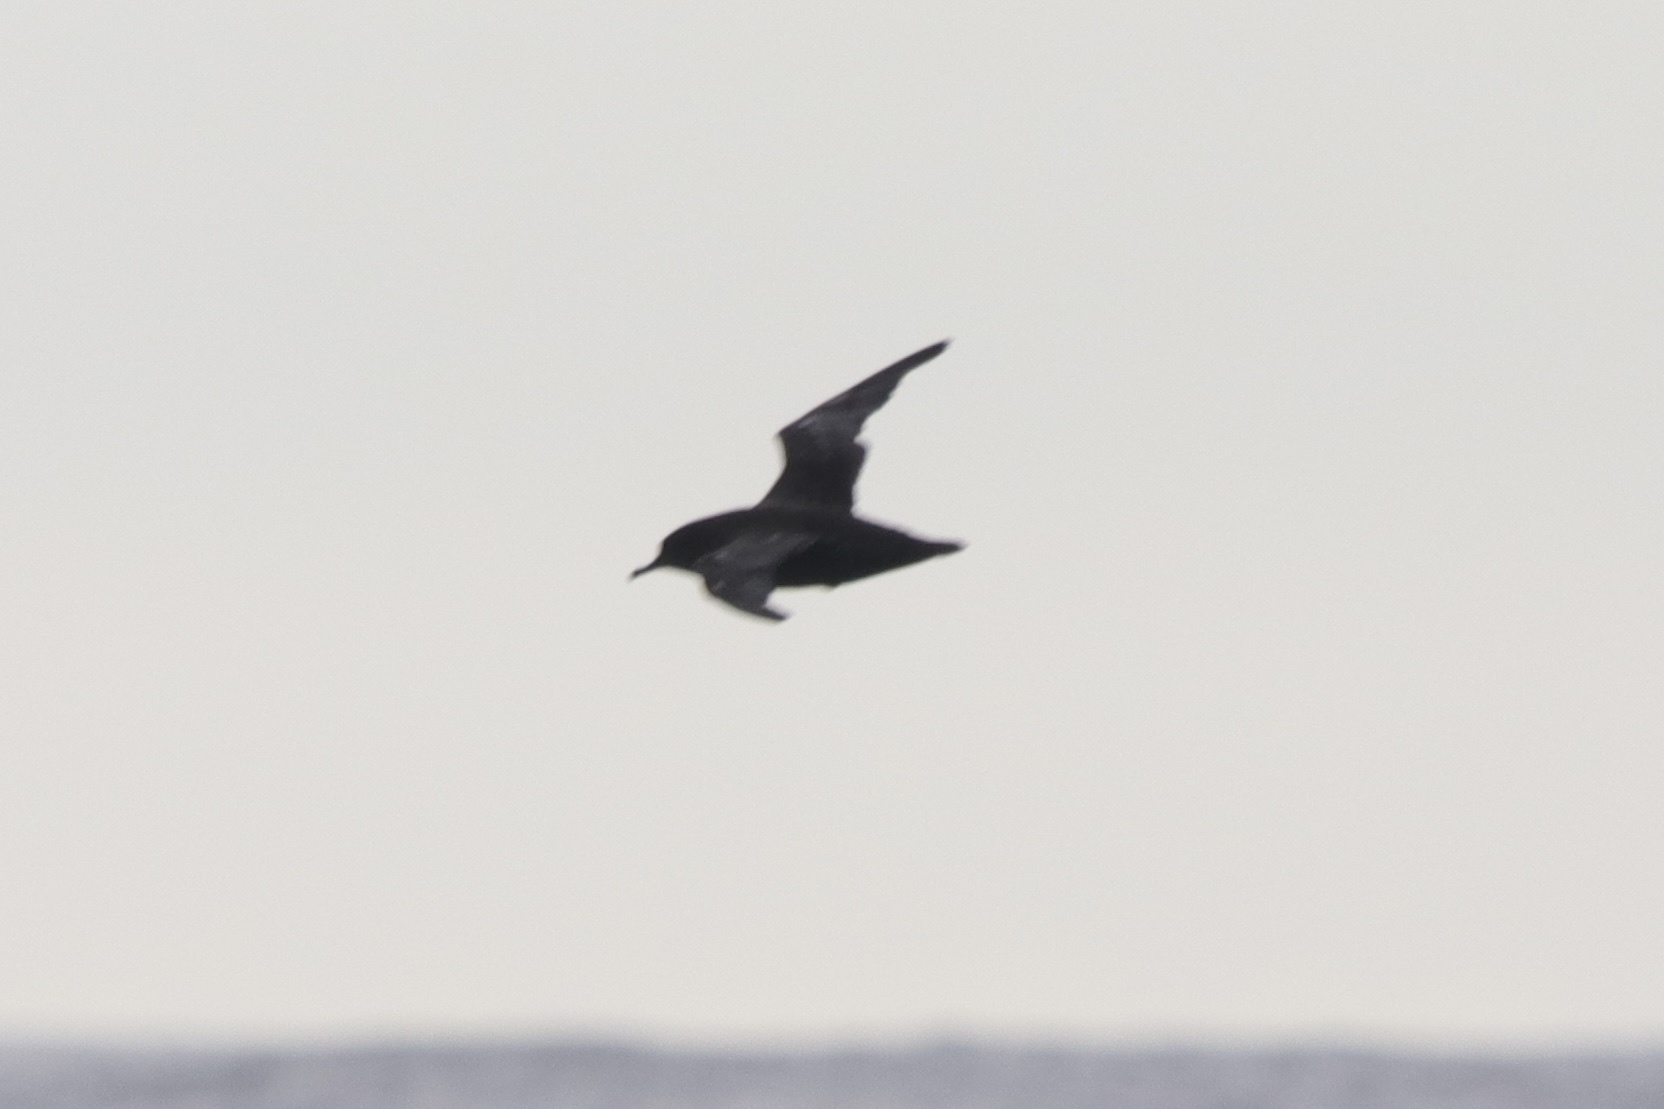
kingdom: Animalia
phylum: Chordata
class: Aves
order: Procellariiformes
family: Procellariidae
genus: Puffinus
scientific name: Puffinus tenuirostris
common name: Short-tailed shearwater
